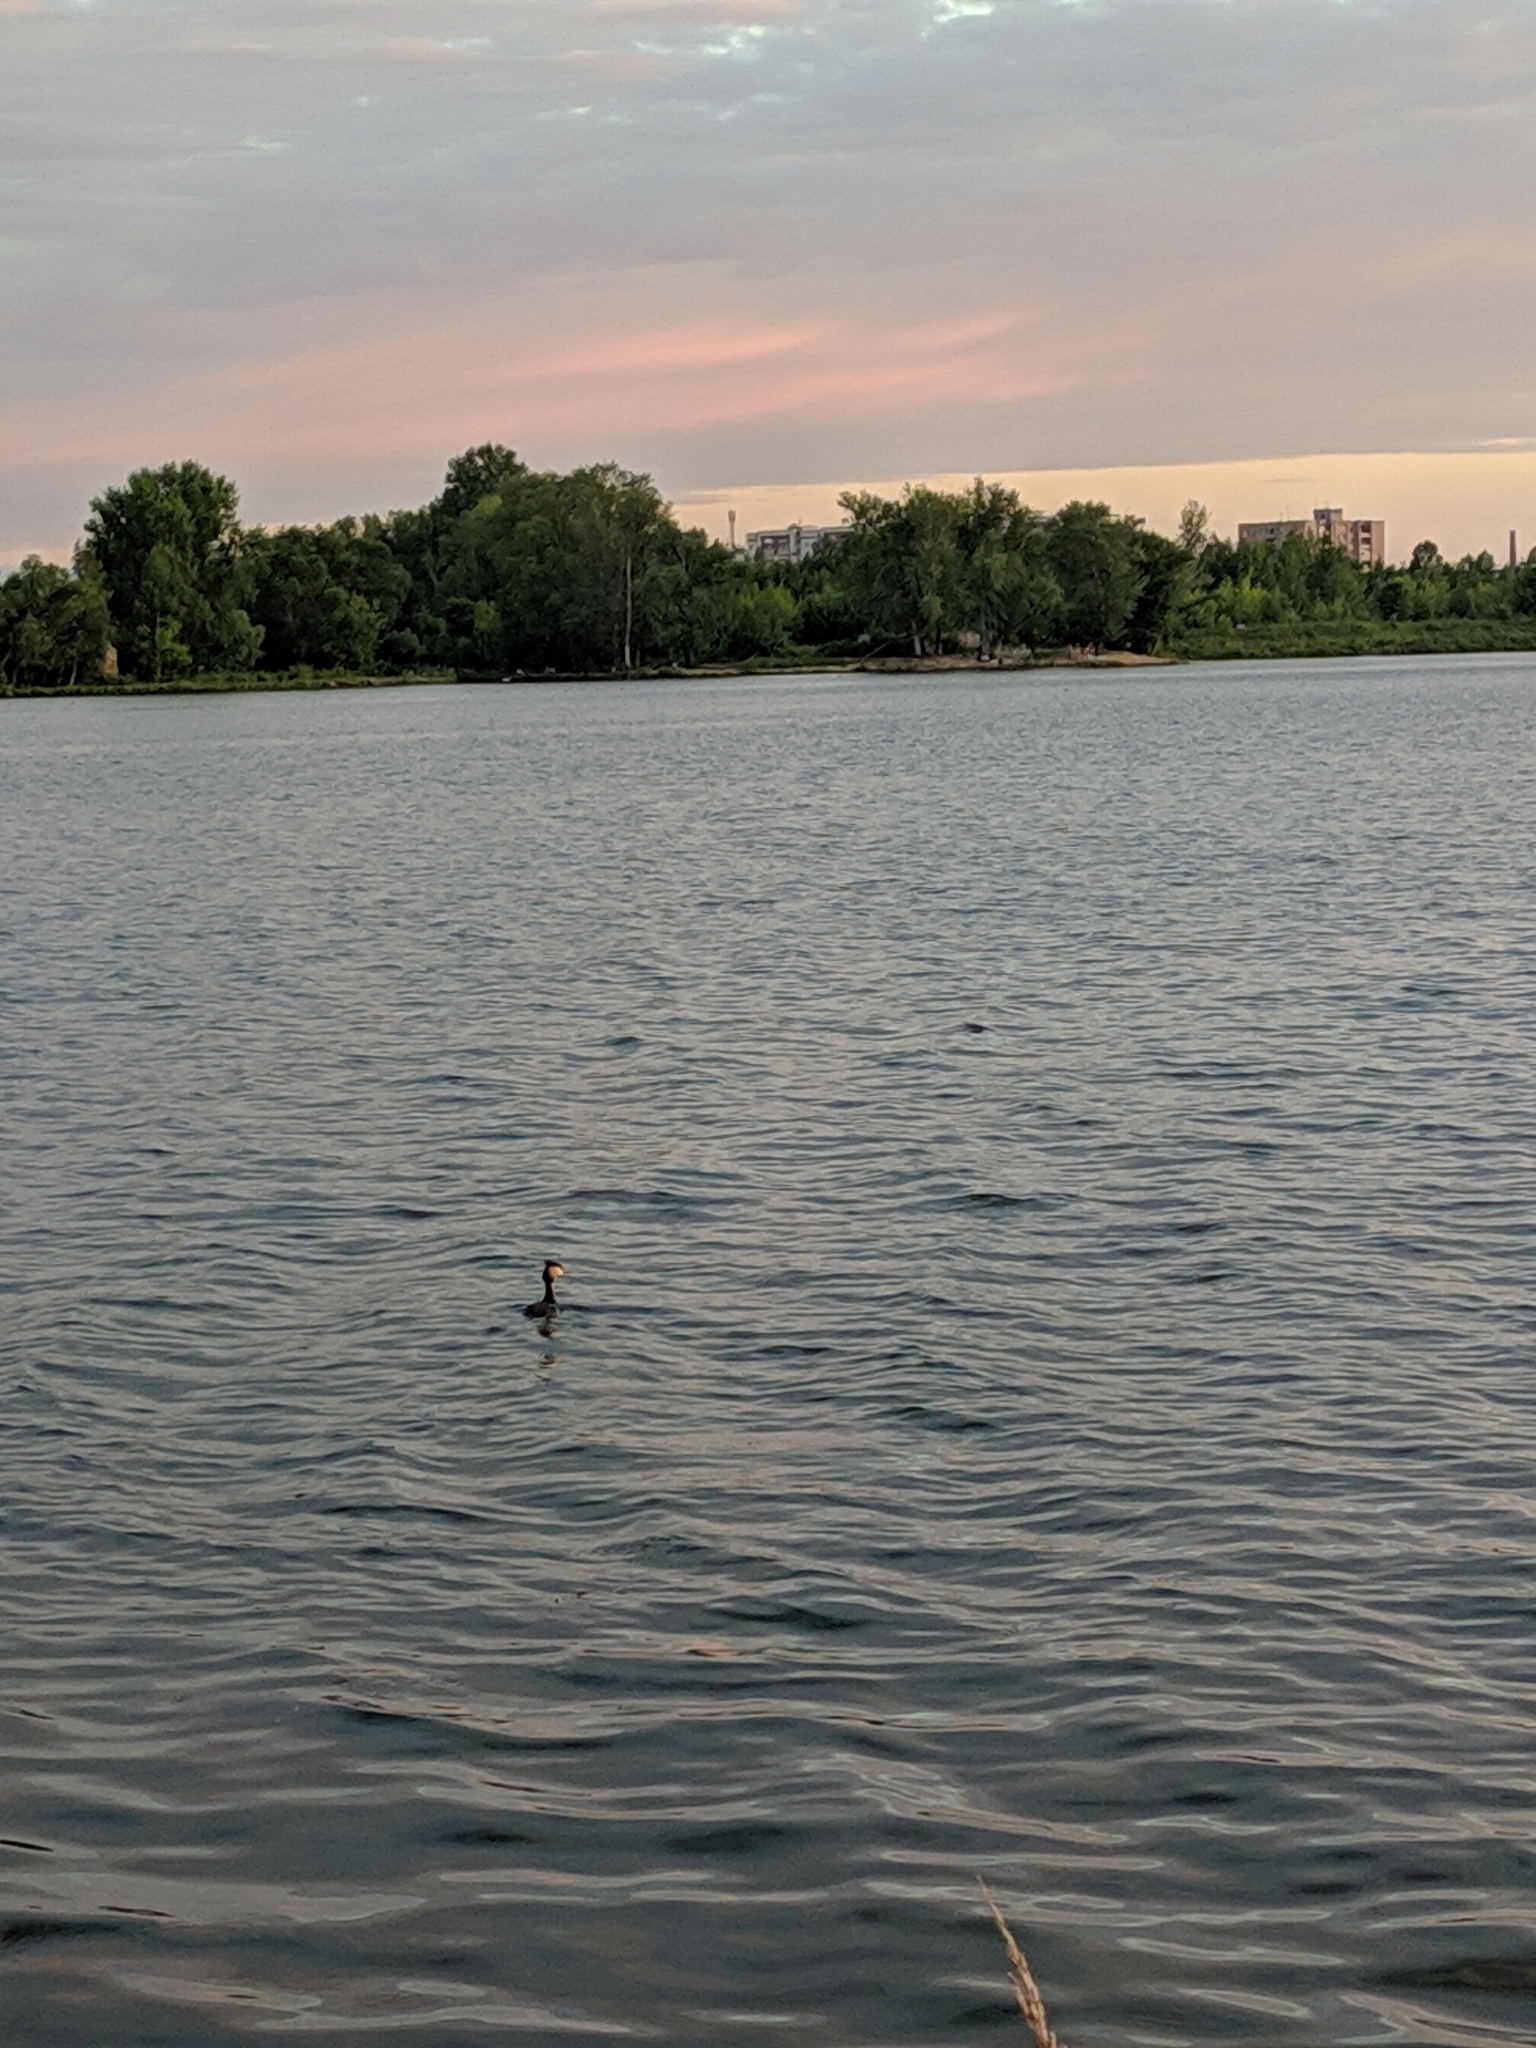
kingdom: Animalia
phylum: Chordata
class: Aves
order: Podicipediformes
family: Podicipedidae
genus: Podiceps
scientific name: Podiceps cristatus
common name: Great crested grebe
